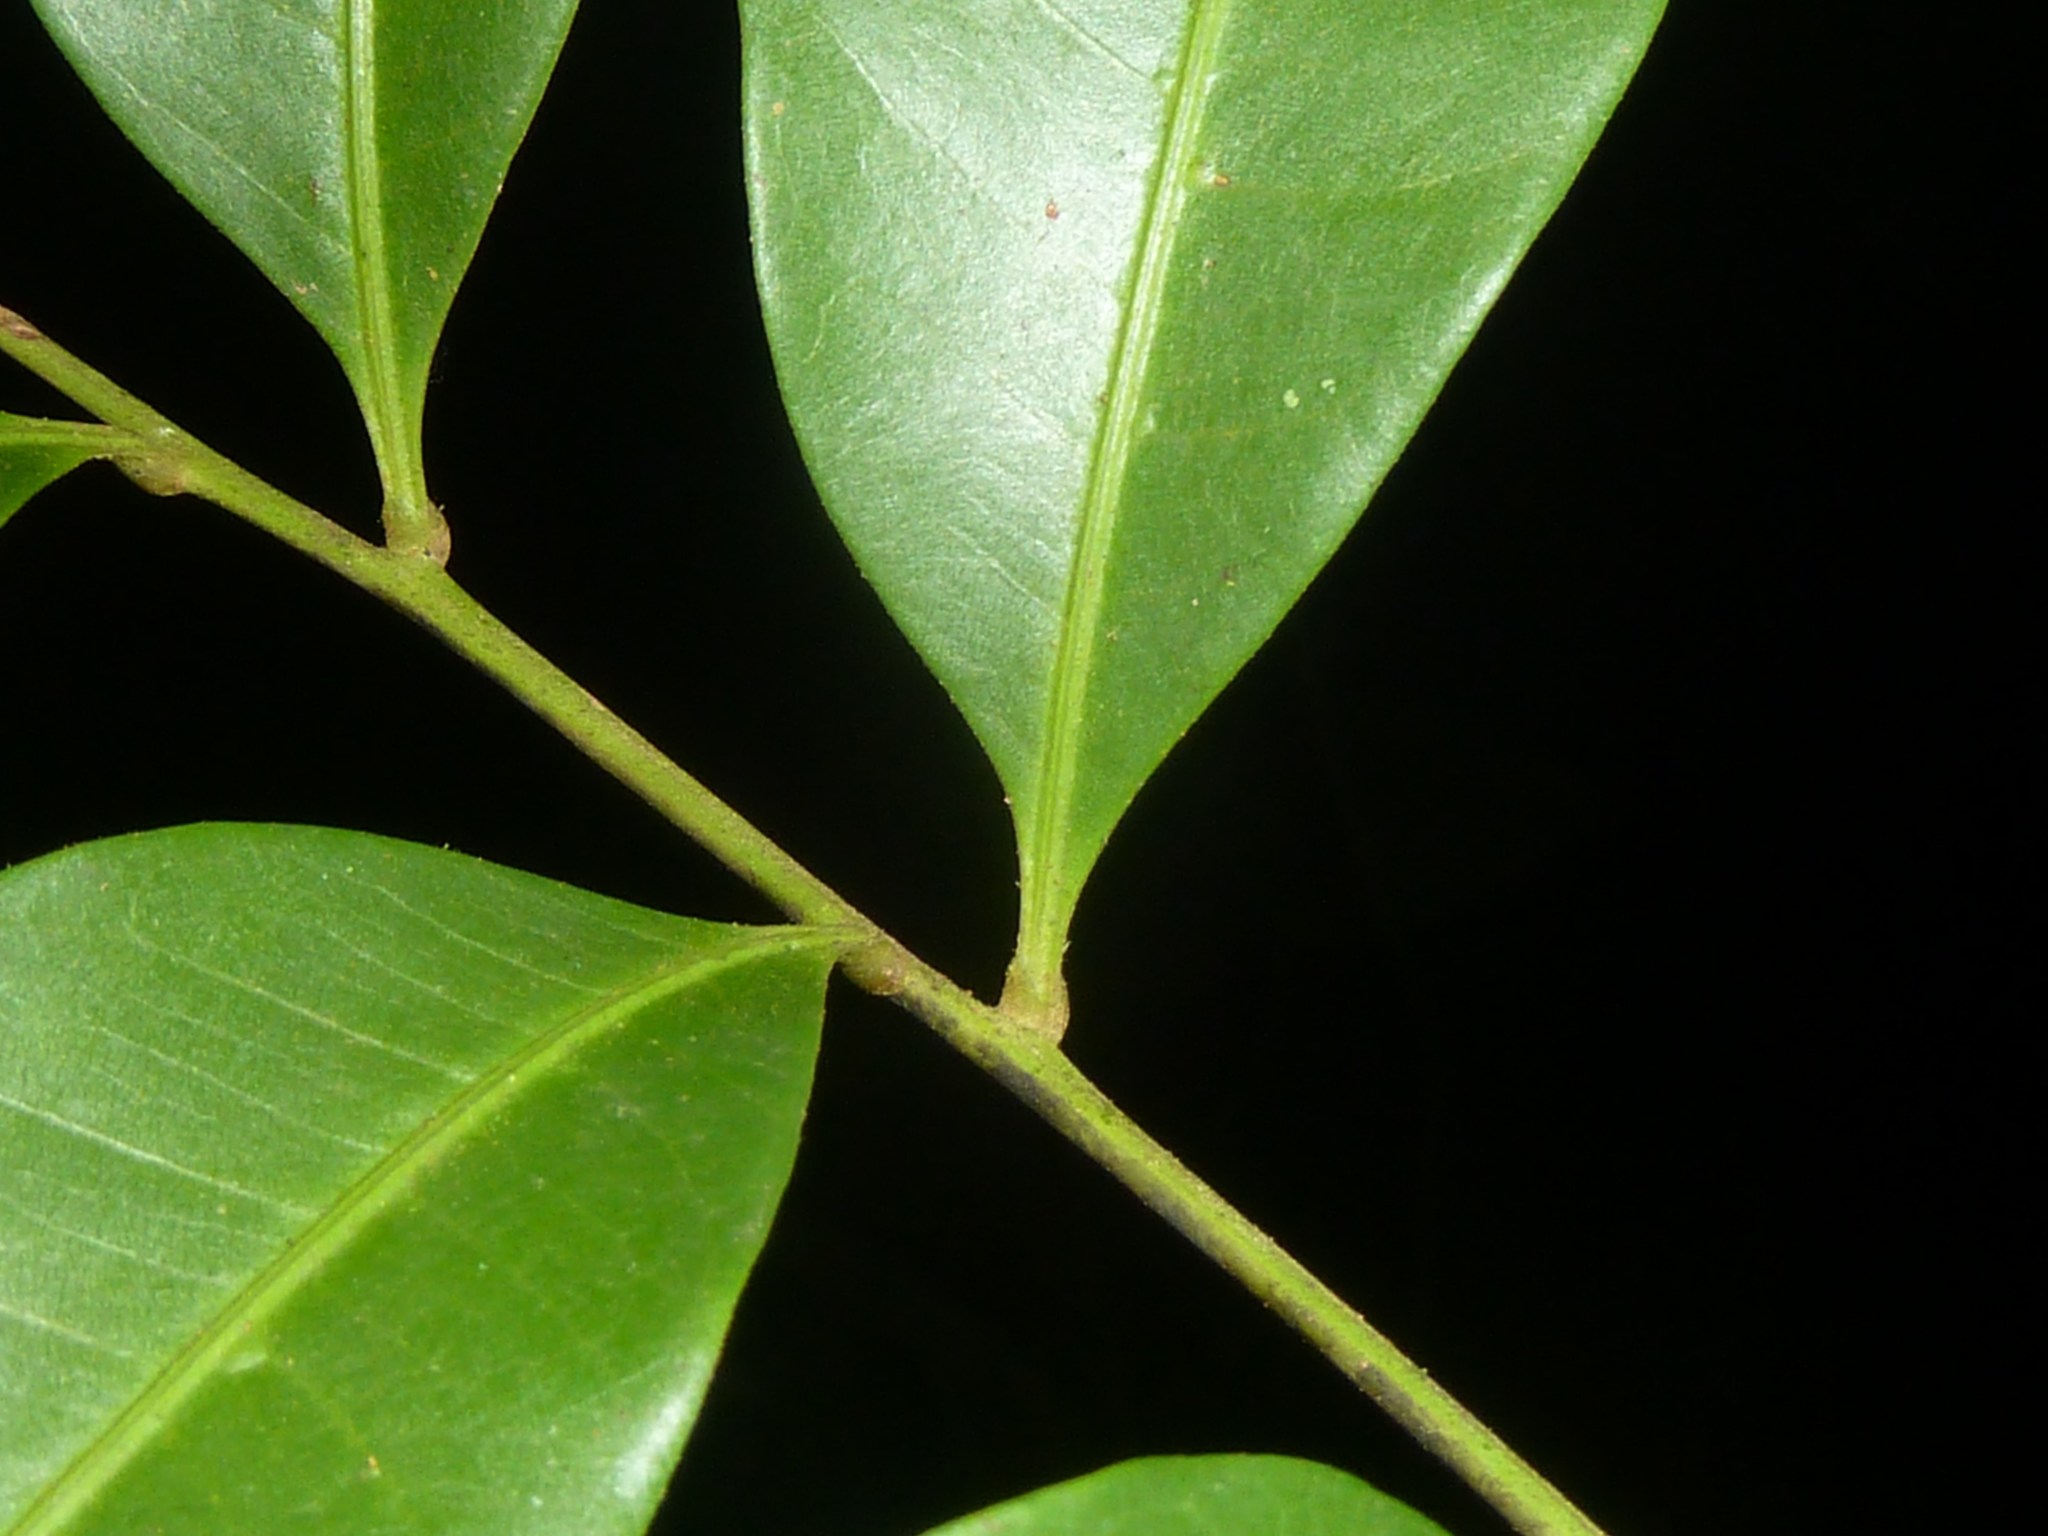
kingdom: Plantae
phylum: Tracheophyta
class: Magnoliopsida
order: Sapindales
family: Sapindaceae
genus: Matayba
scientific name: Matayba oppositifolia
